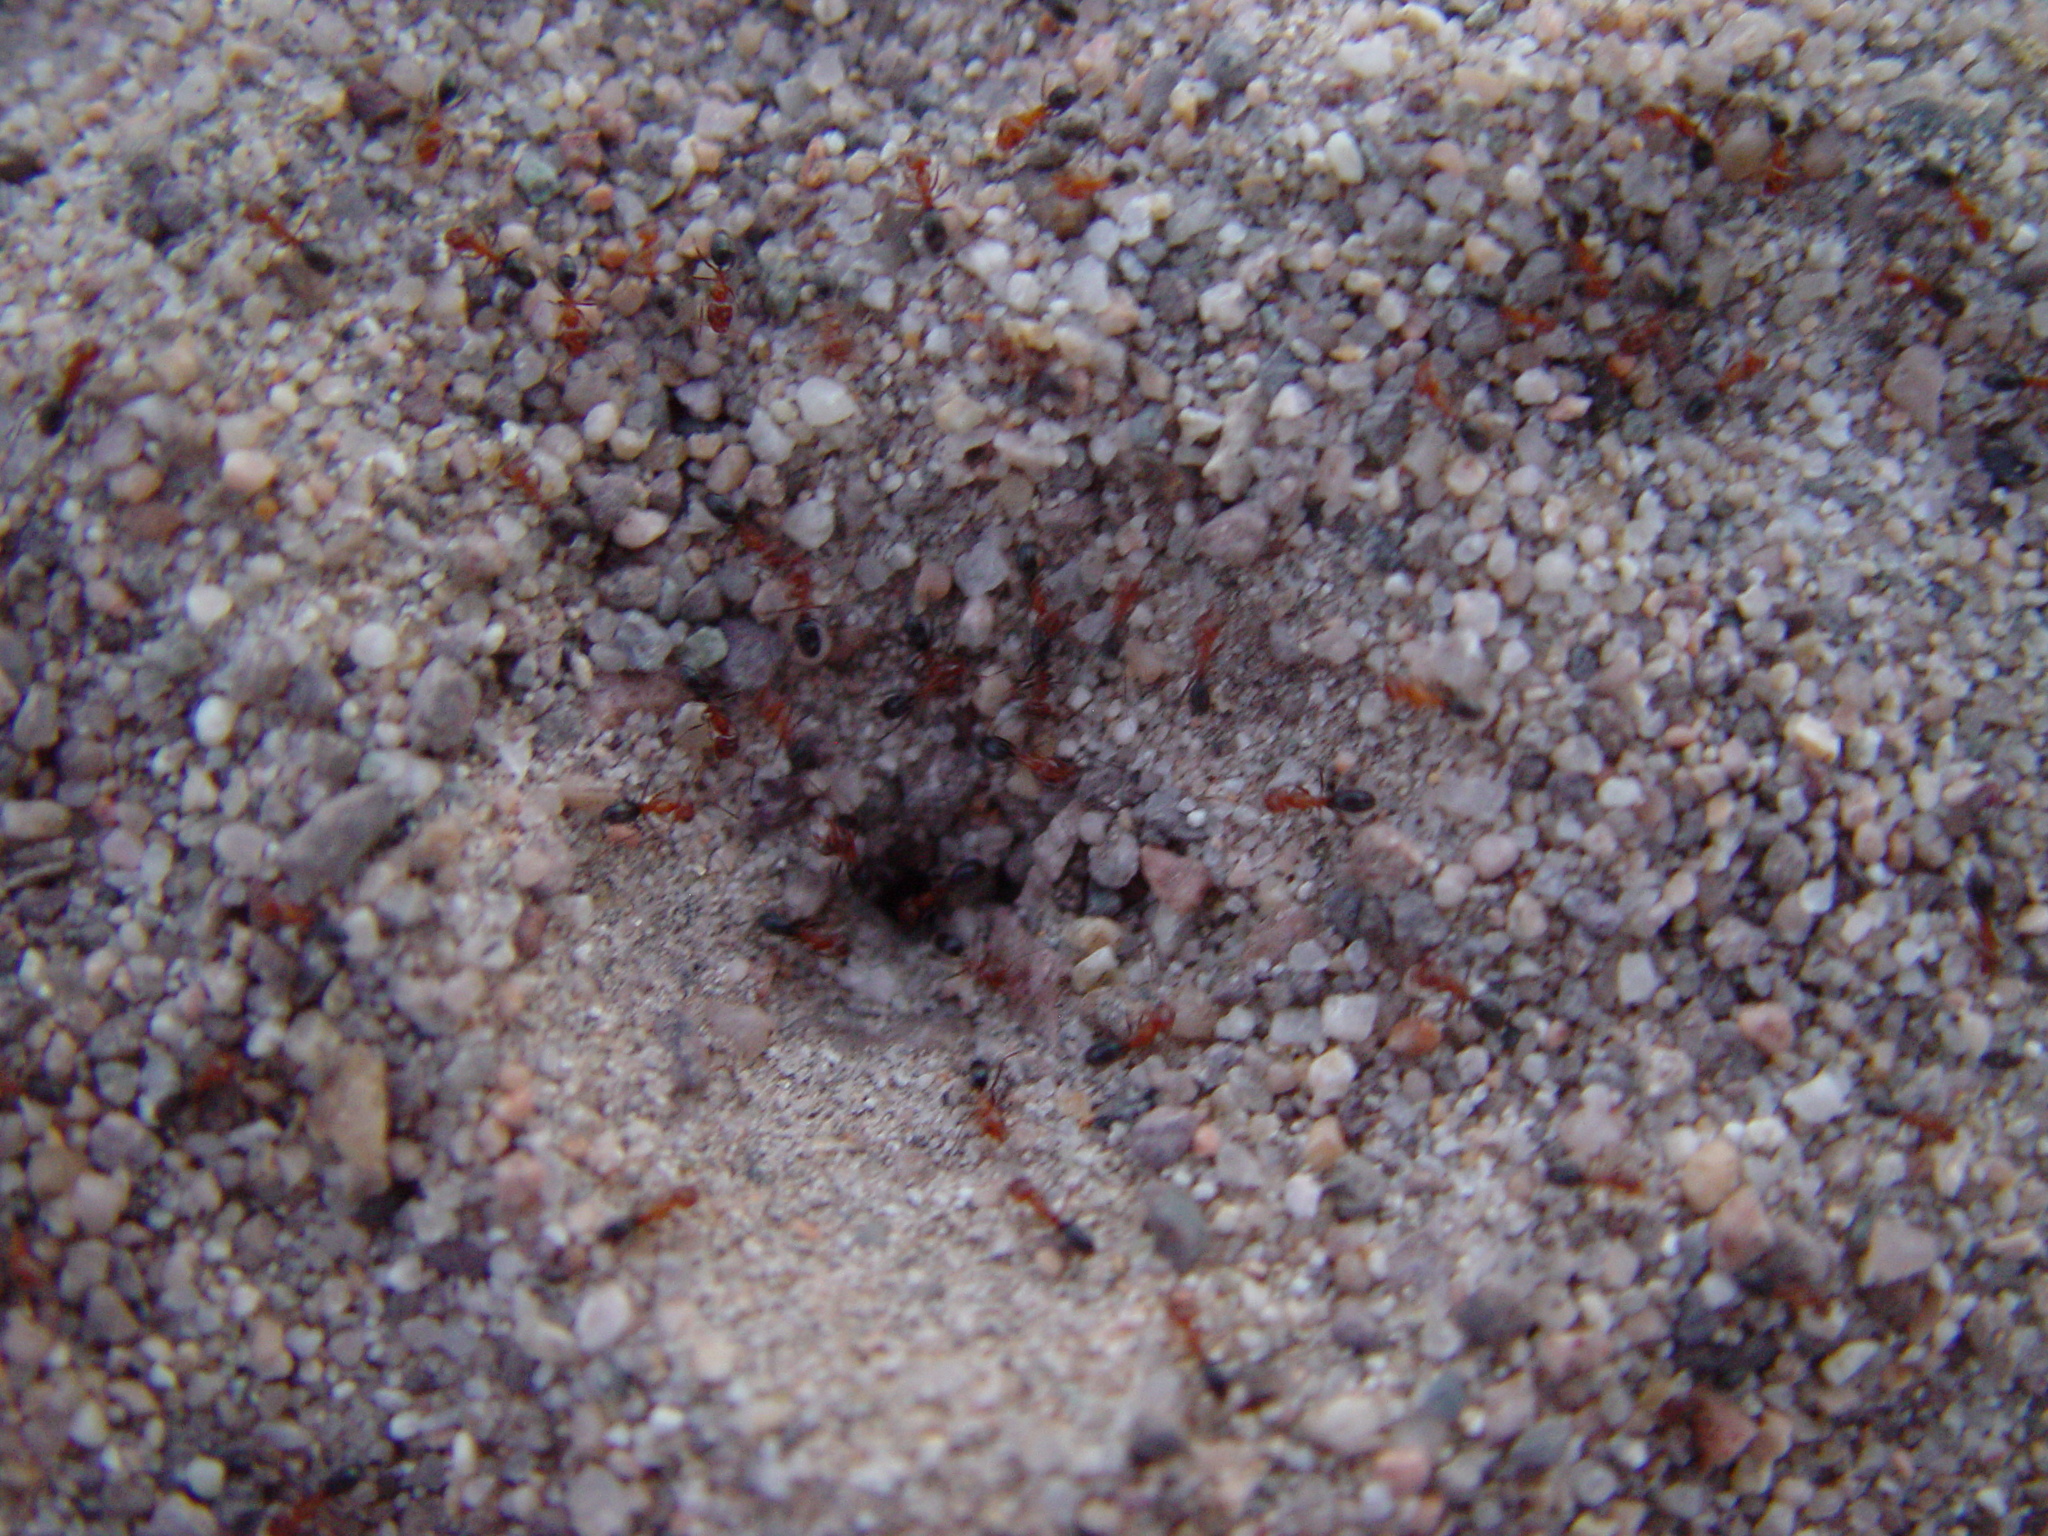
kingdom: Animalia
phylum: Arthropoda
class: Insecta
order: Hymenoptera
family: Formicidae
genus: Dorymyrmex
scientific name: Dorymyrmex bicolor
